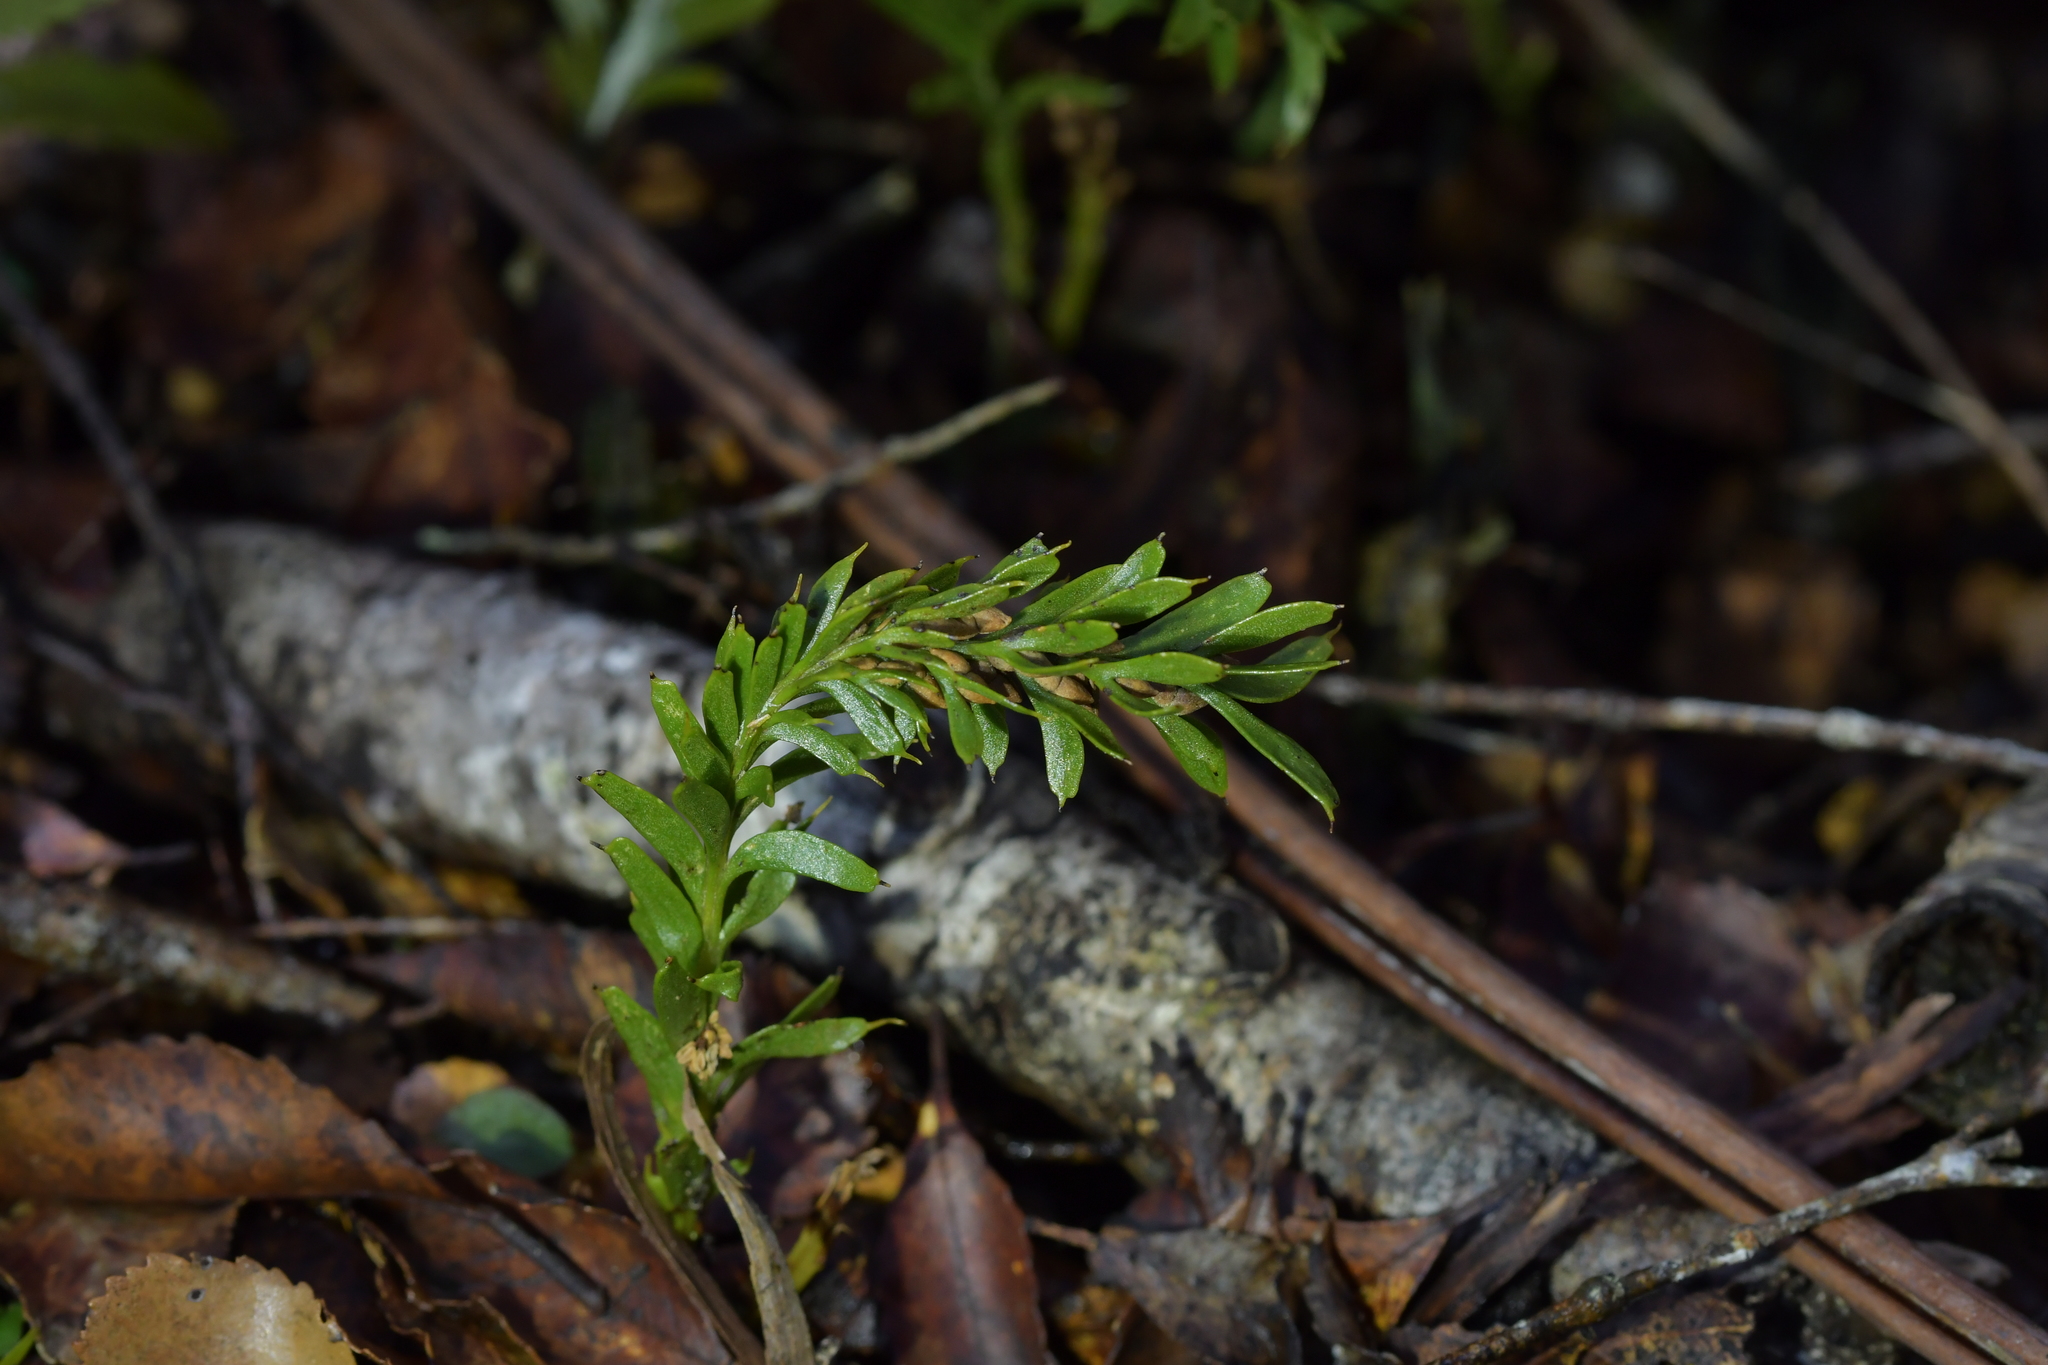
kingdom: Plantae
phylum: Tracheophyta
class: Polypodiopsida
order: Psilotales
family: Psilotaceae
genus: Tmesipteris
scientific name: Tmesipteris tannensis
